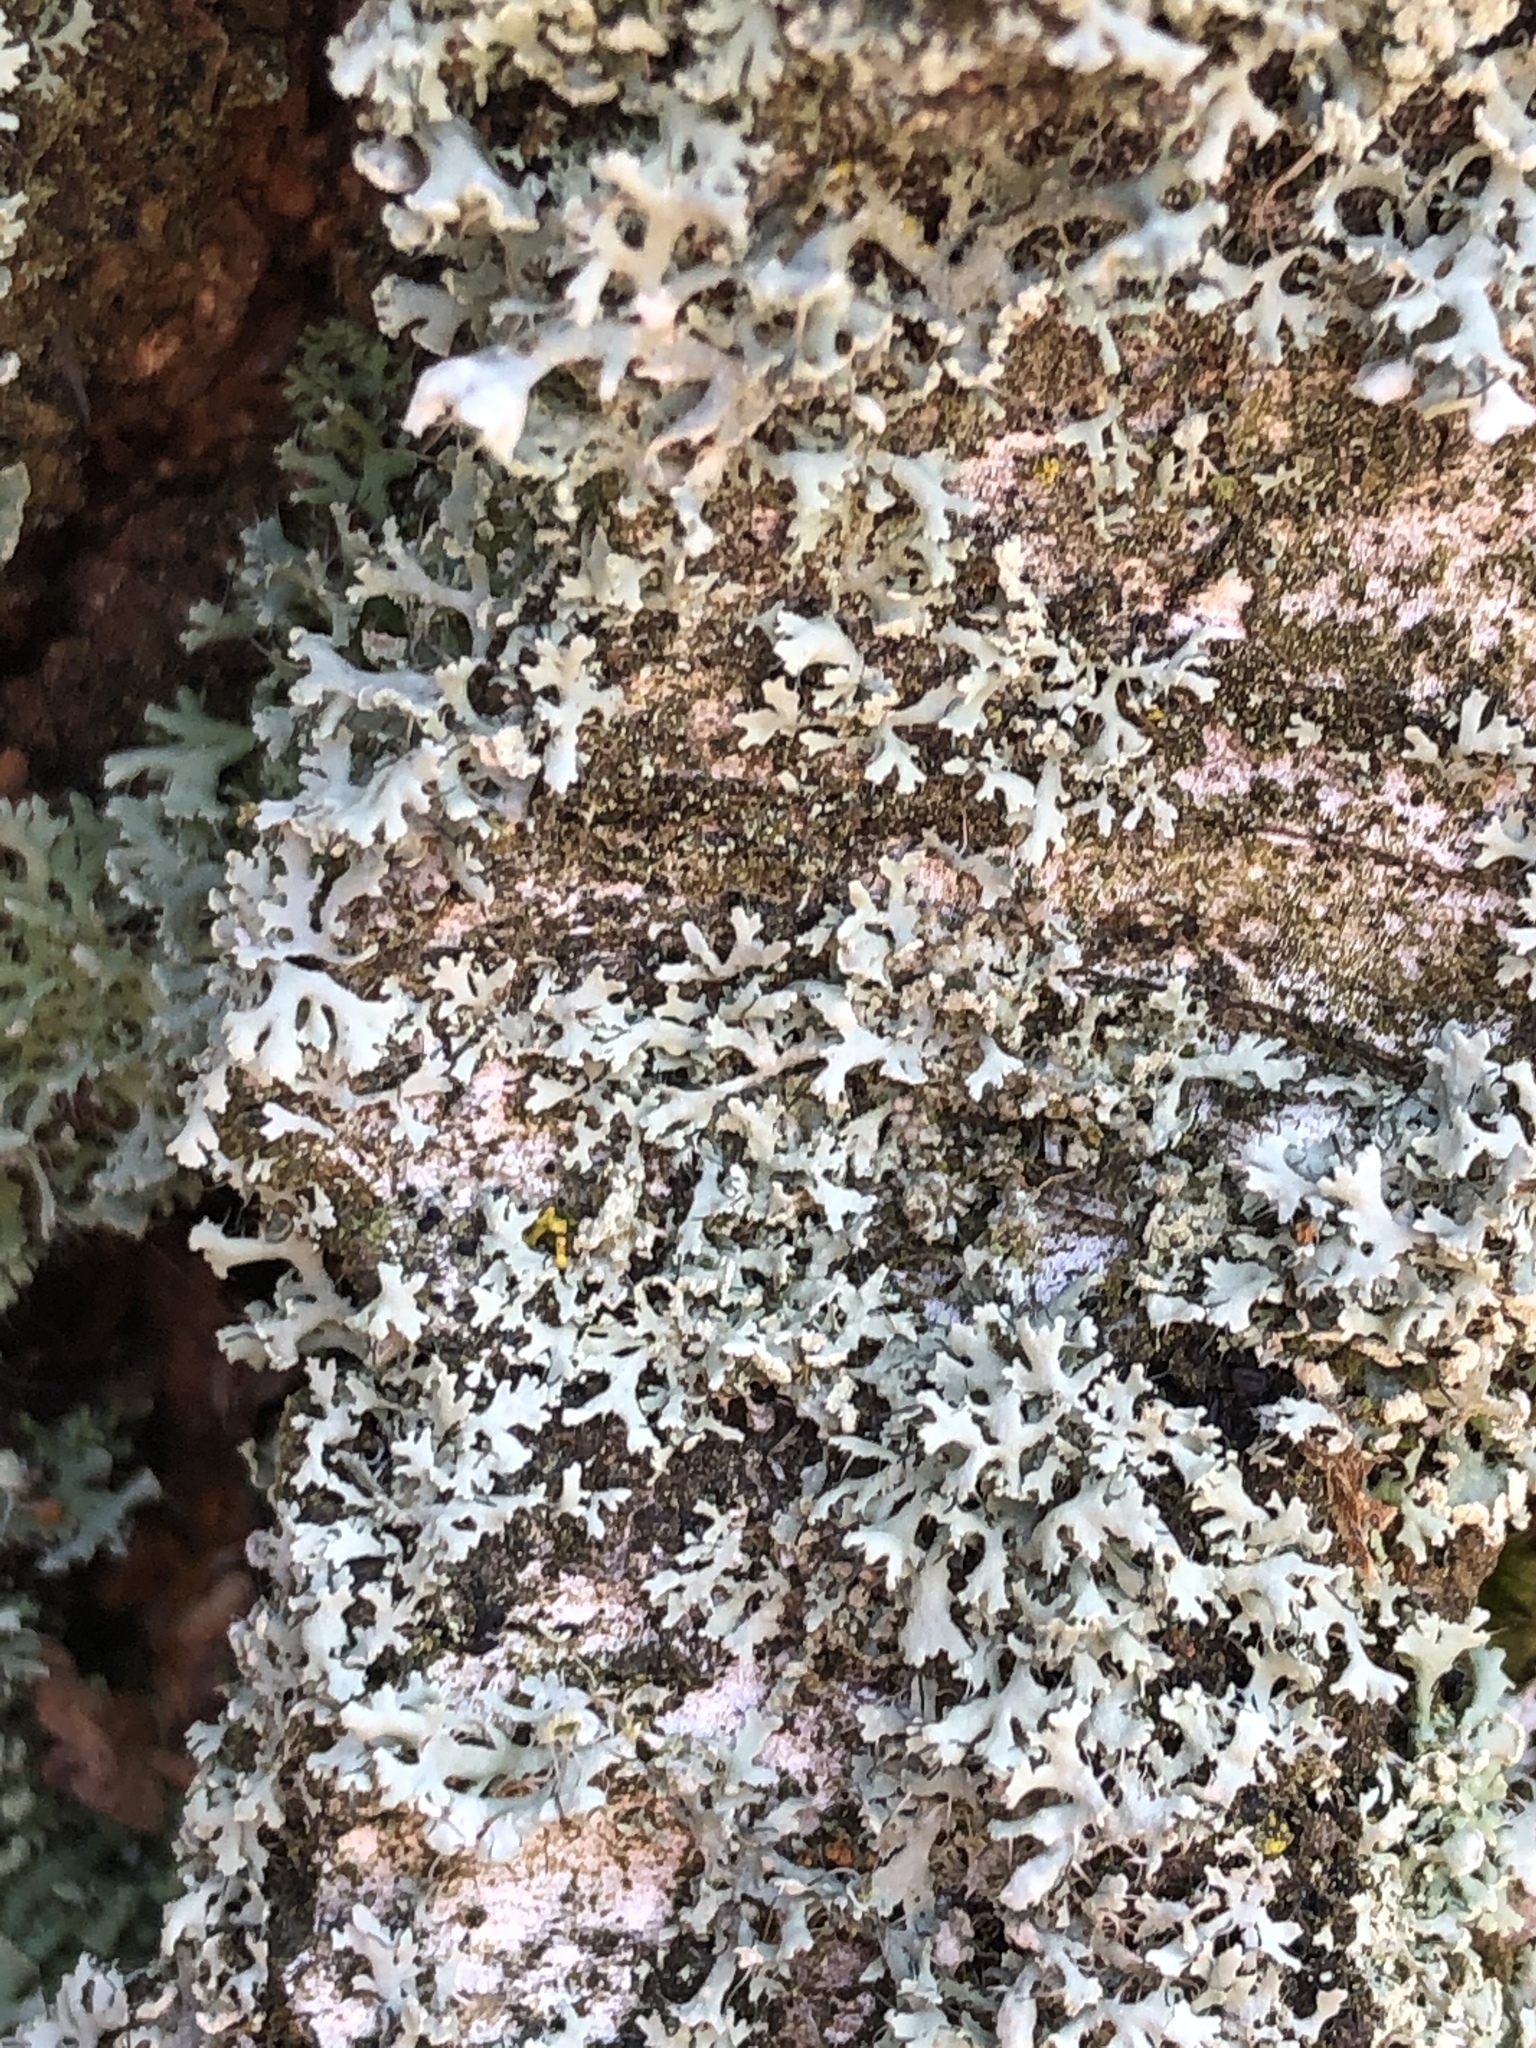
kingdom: Fungi
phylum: Ascomycota
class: Lecanoromycetes
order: Caliciales
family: Physciaceae
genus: Physcia
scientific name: Physcia tenella
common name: Fringed rosette lichen
